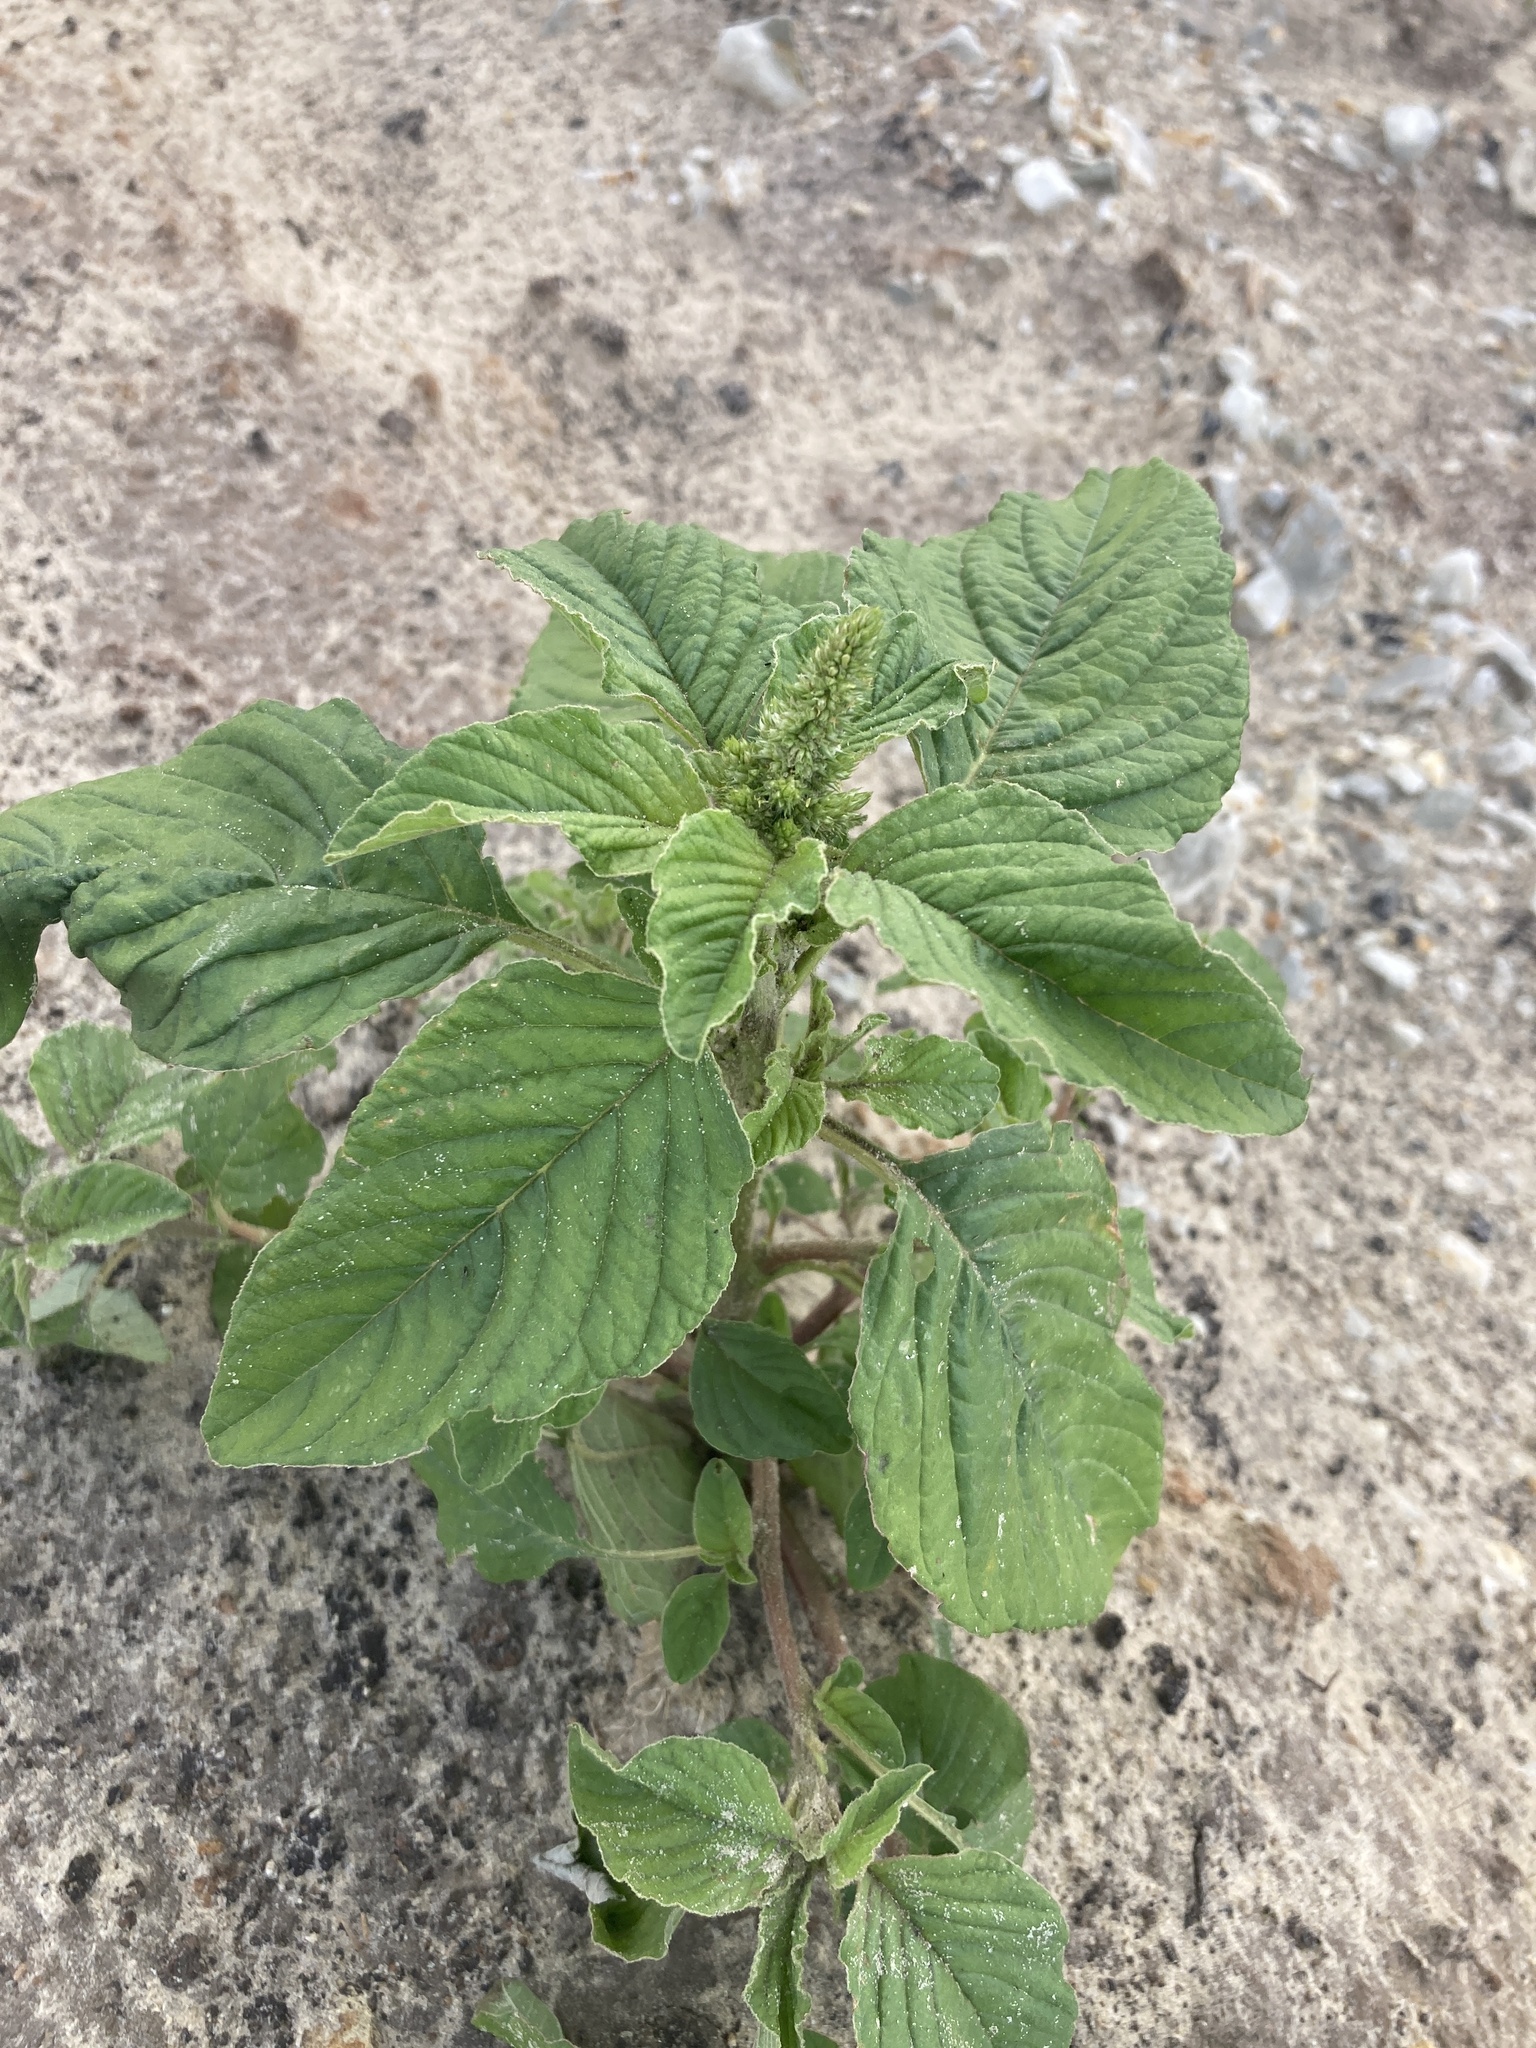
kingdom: Plantae
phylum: Tracheophyta
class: Magnoliopsida
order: Caryophyllales
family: Amaranthaceae
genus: Amaranthus
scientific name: Amaranthus retroflexus
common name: Redroot amaranth
